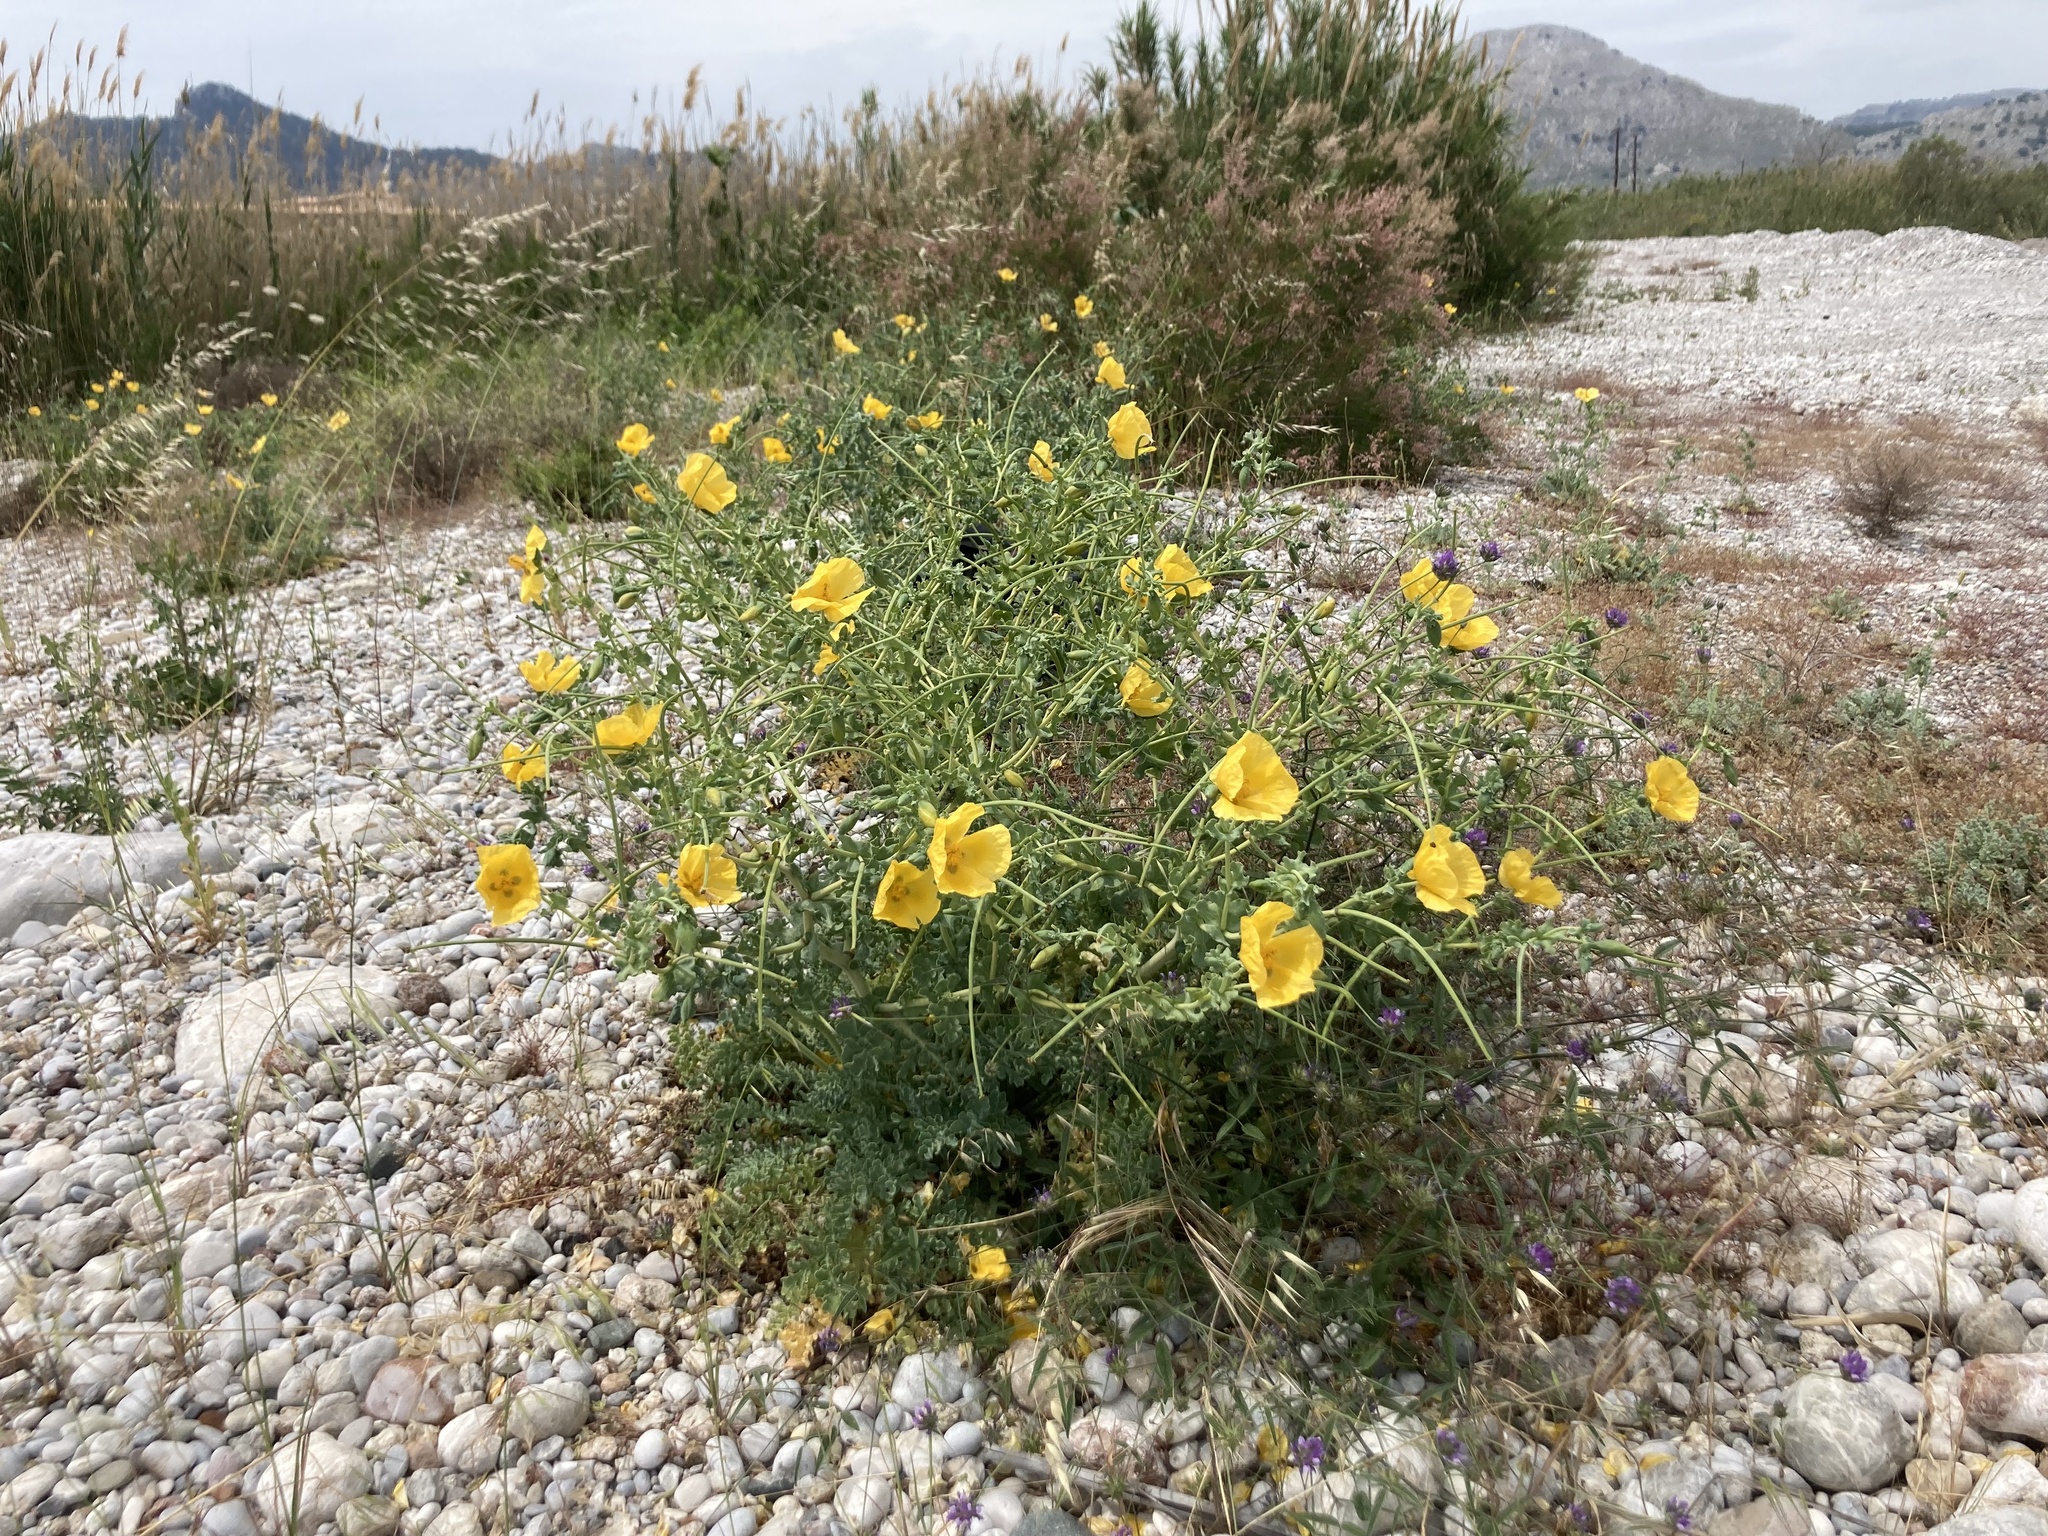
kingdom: Plantae
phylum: Tracheophyta
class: Magnoliopsida
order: Ranunculales
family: Papaveraceae
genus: Glaucium
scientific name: Glaucium flavum
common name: Yellow horned-poppy
